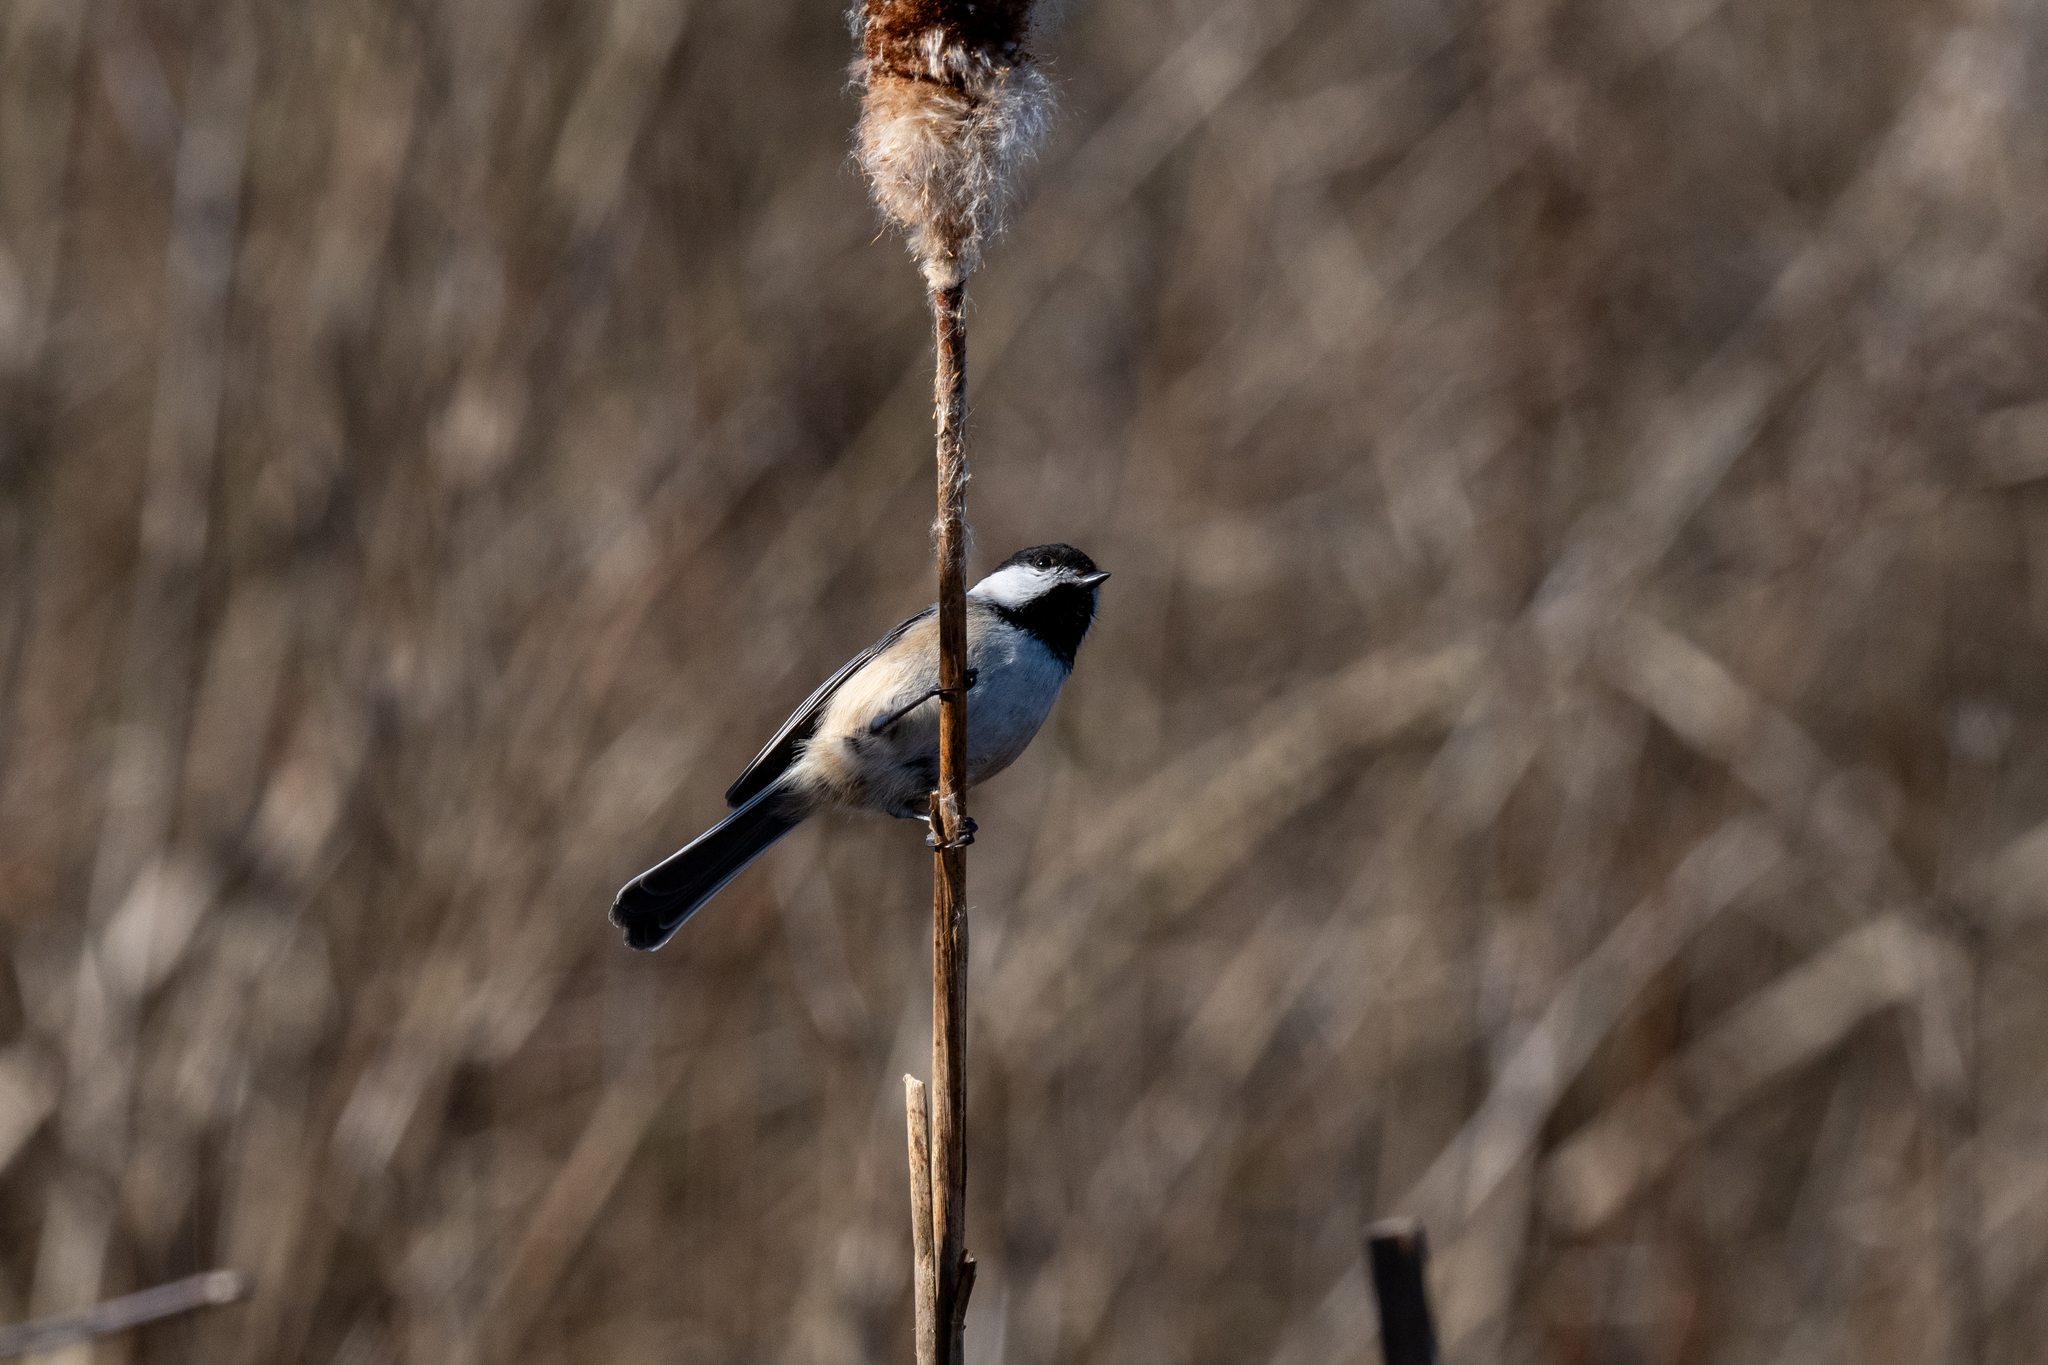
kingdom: Animalia
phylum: Chordata
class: Aves
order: Passeriformes
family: Paridae
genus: Poecile
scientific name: Poecile atricapillus
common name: Black-capped chickadee
